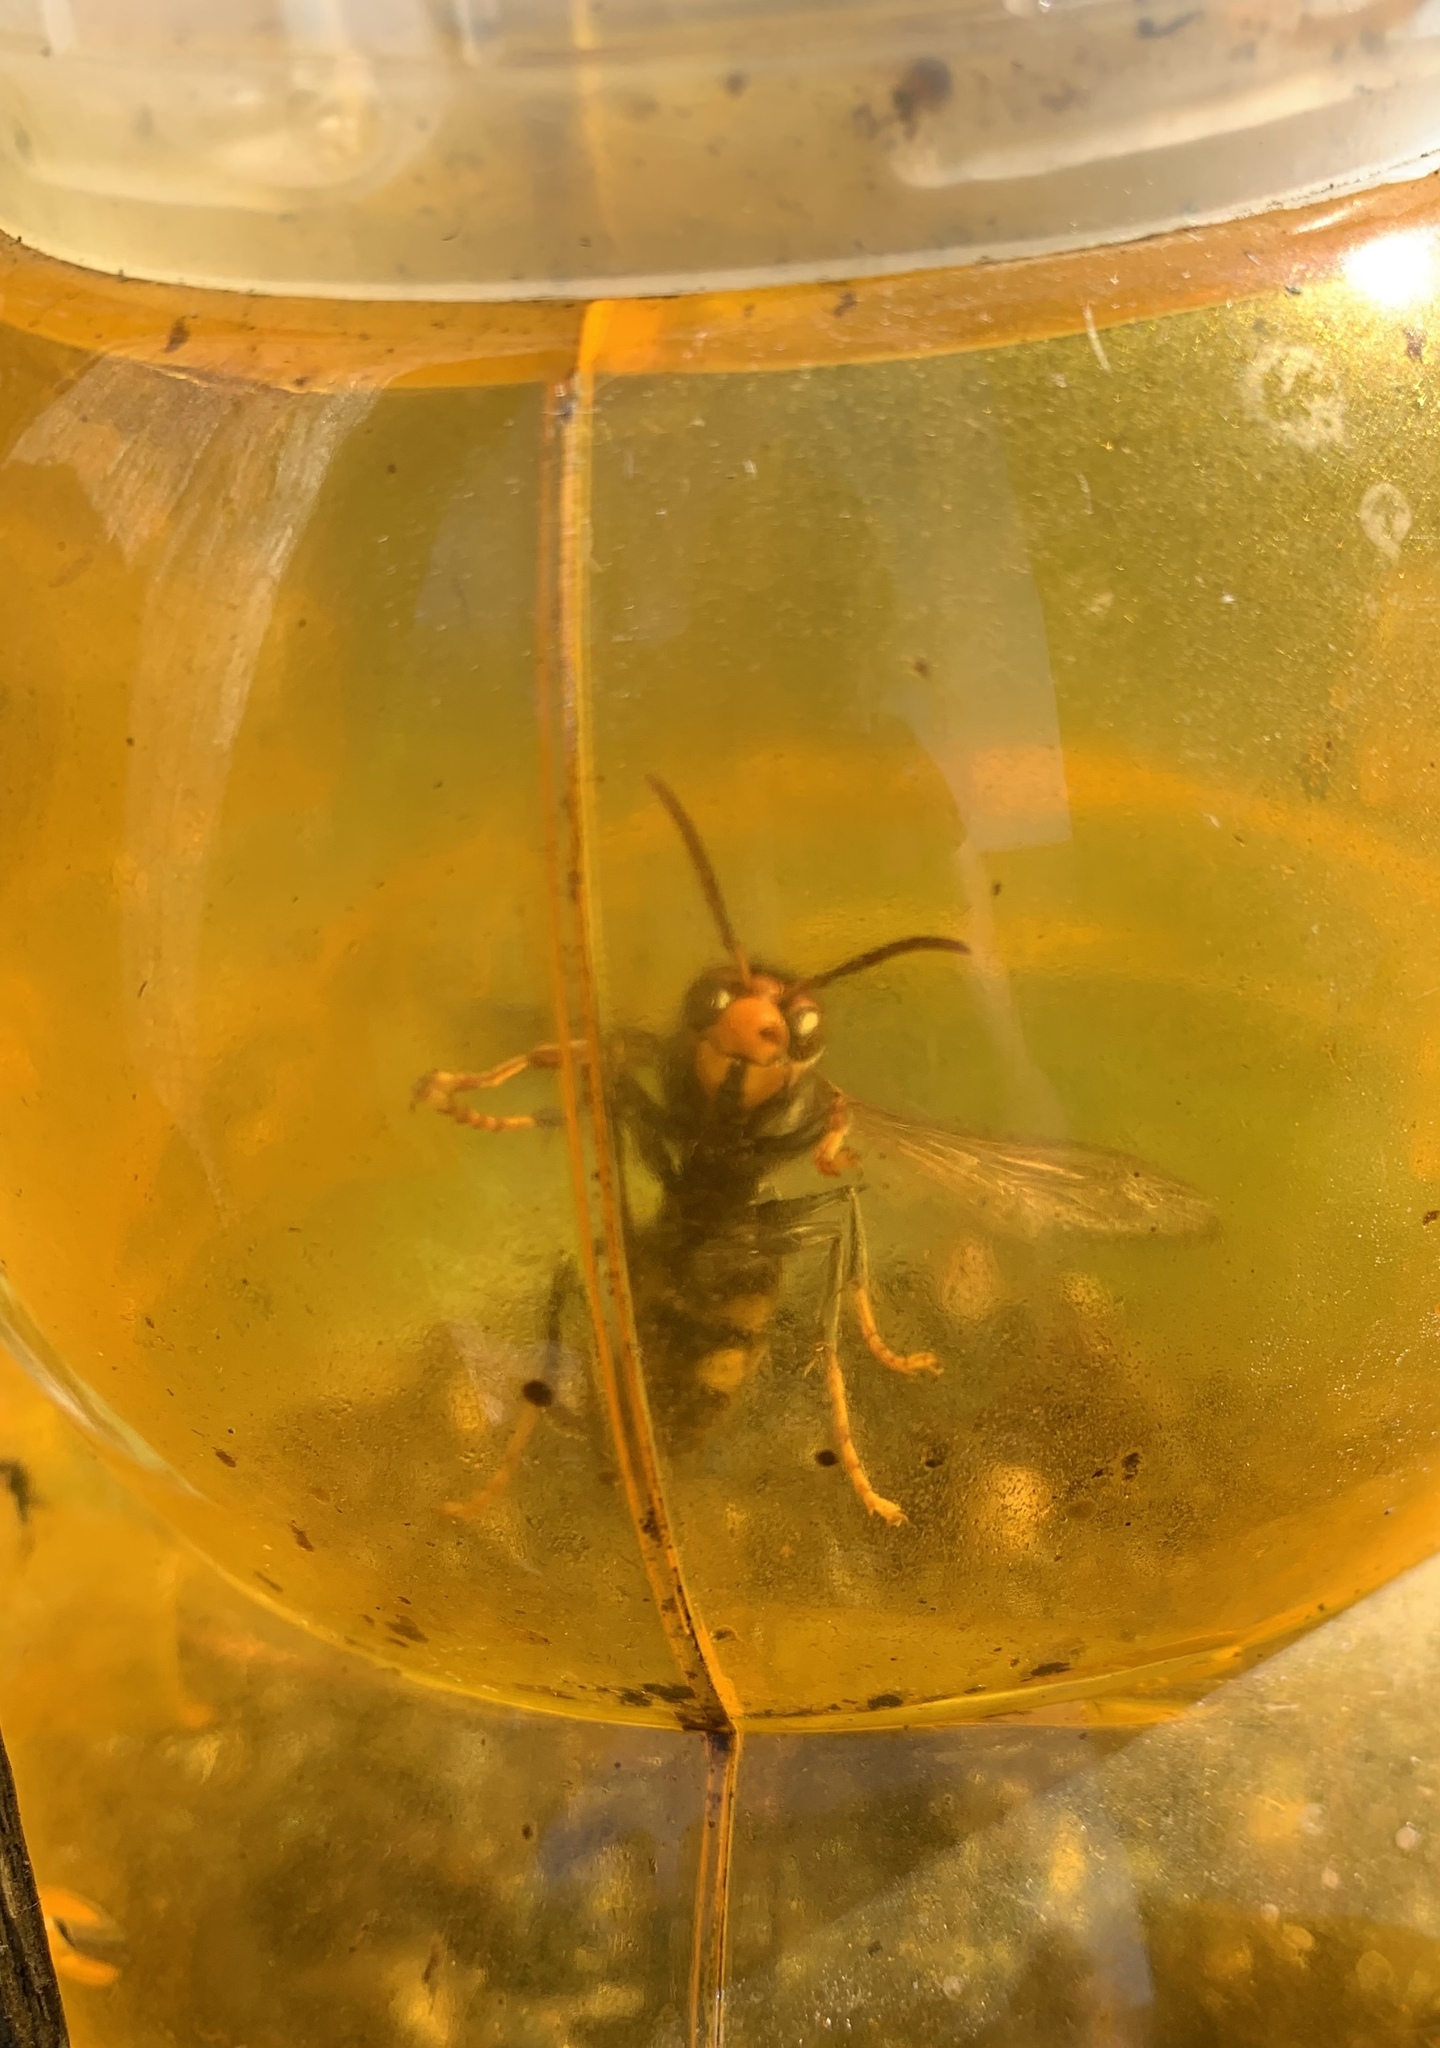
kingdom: Animalia
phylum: Arthropoda
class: Insecta
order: Hymenoptera
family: Vespidae
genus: Vespa
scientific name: Vespa velutina
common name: Asian hornet
